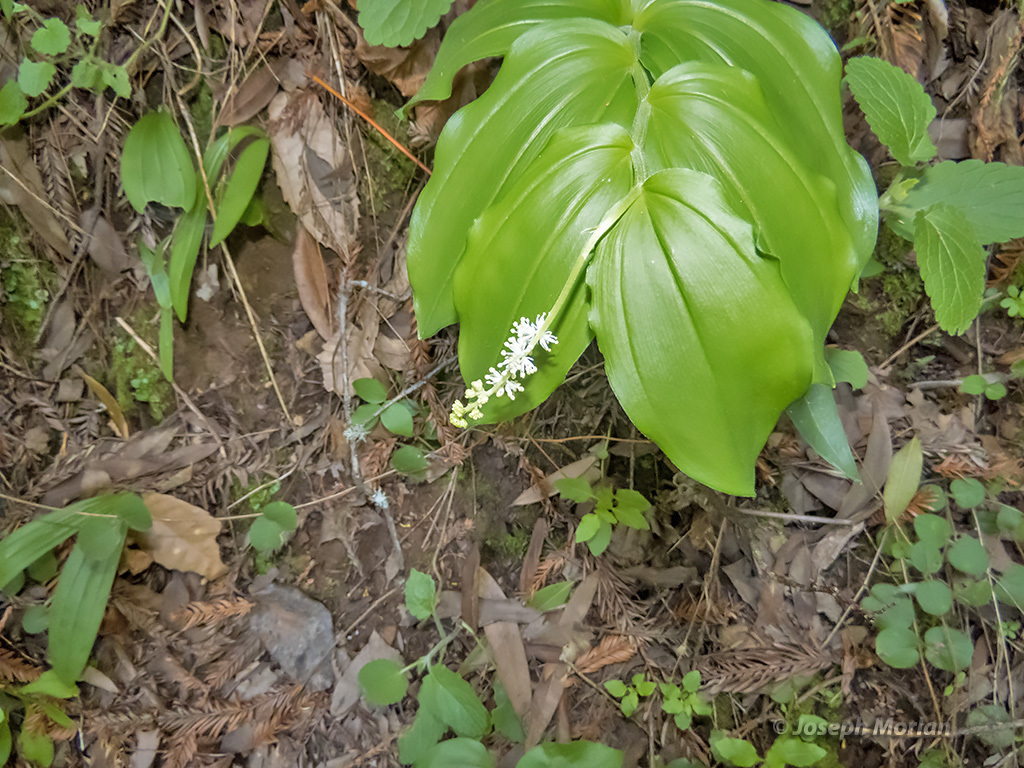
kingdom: Plantae
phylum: Tracheophyta
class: Liliopsida
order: Asparagales
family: Asparagaceae
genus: Maianthemum
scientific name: Maianthemum racemosum
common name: False spikenard
